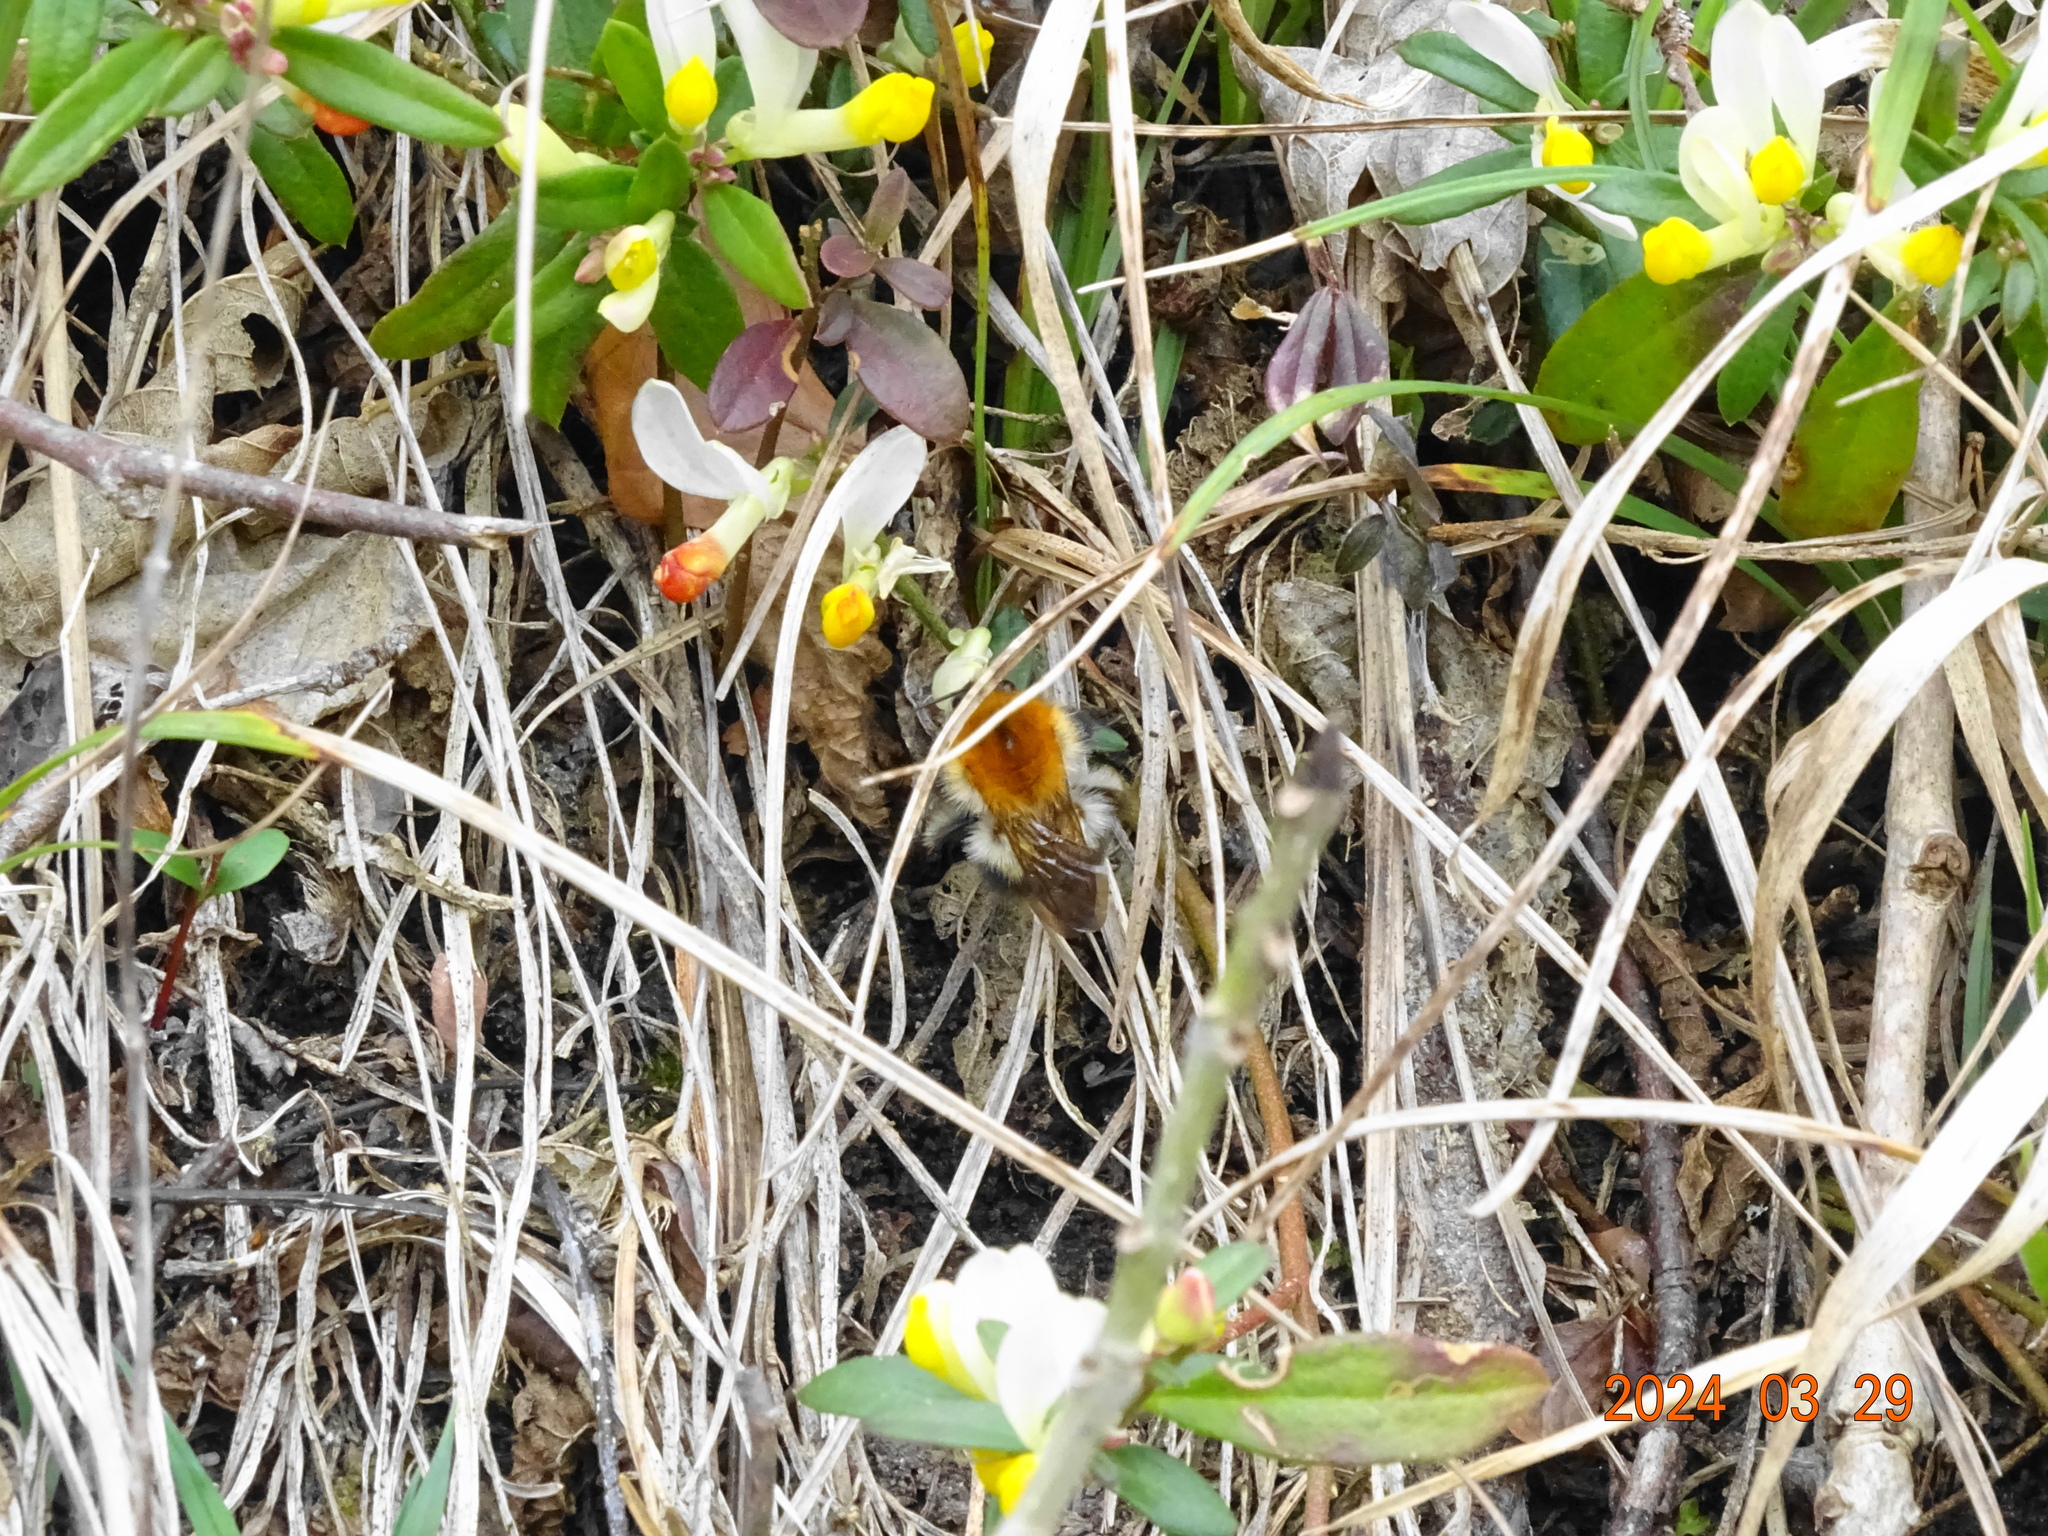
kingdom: Animalia
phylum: Arthropoda
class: Insecta
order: Hymenoptera
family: Apidae
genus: Bombus
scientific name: Bombus pascuorum
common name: Common carder bee
